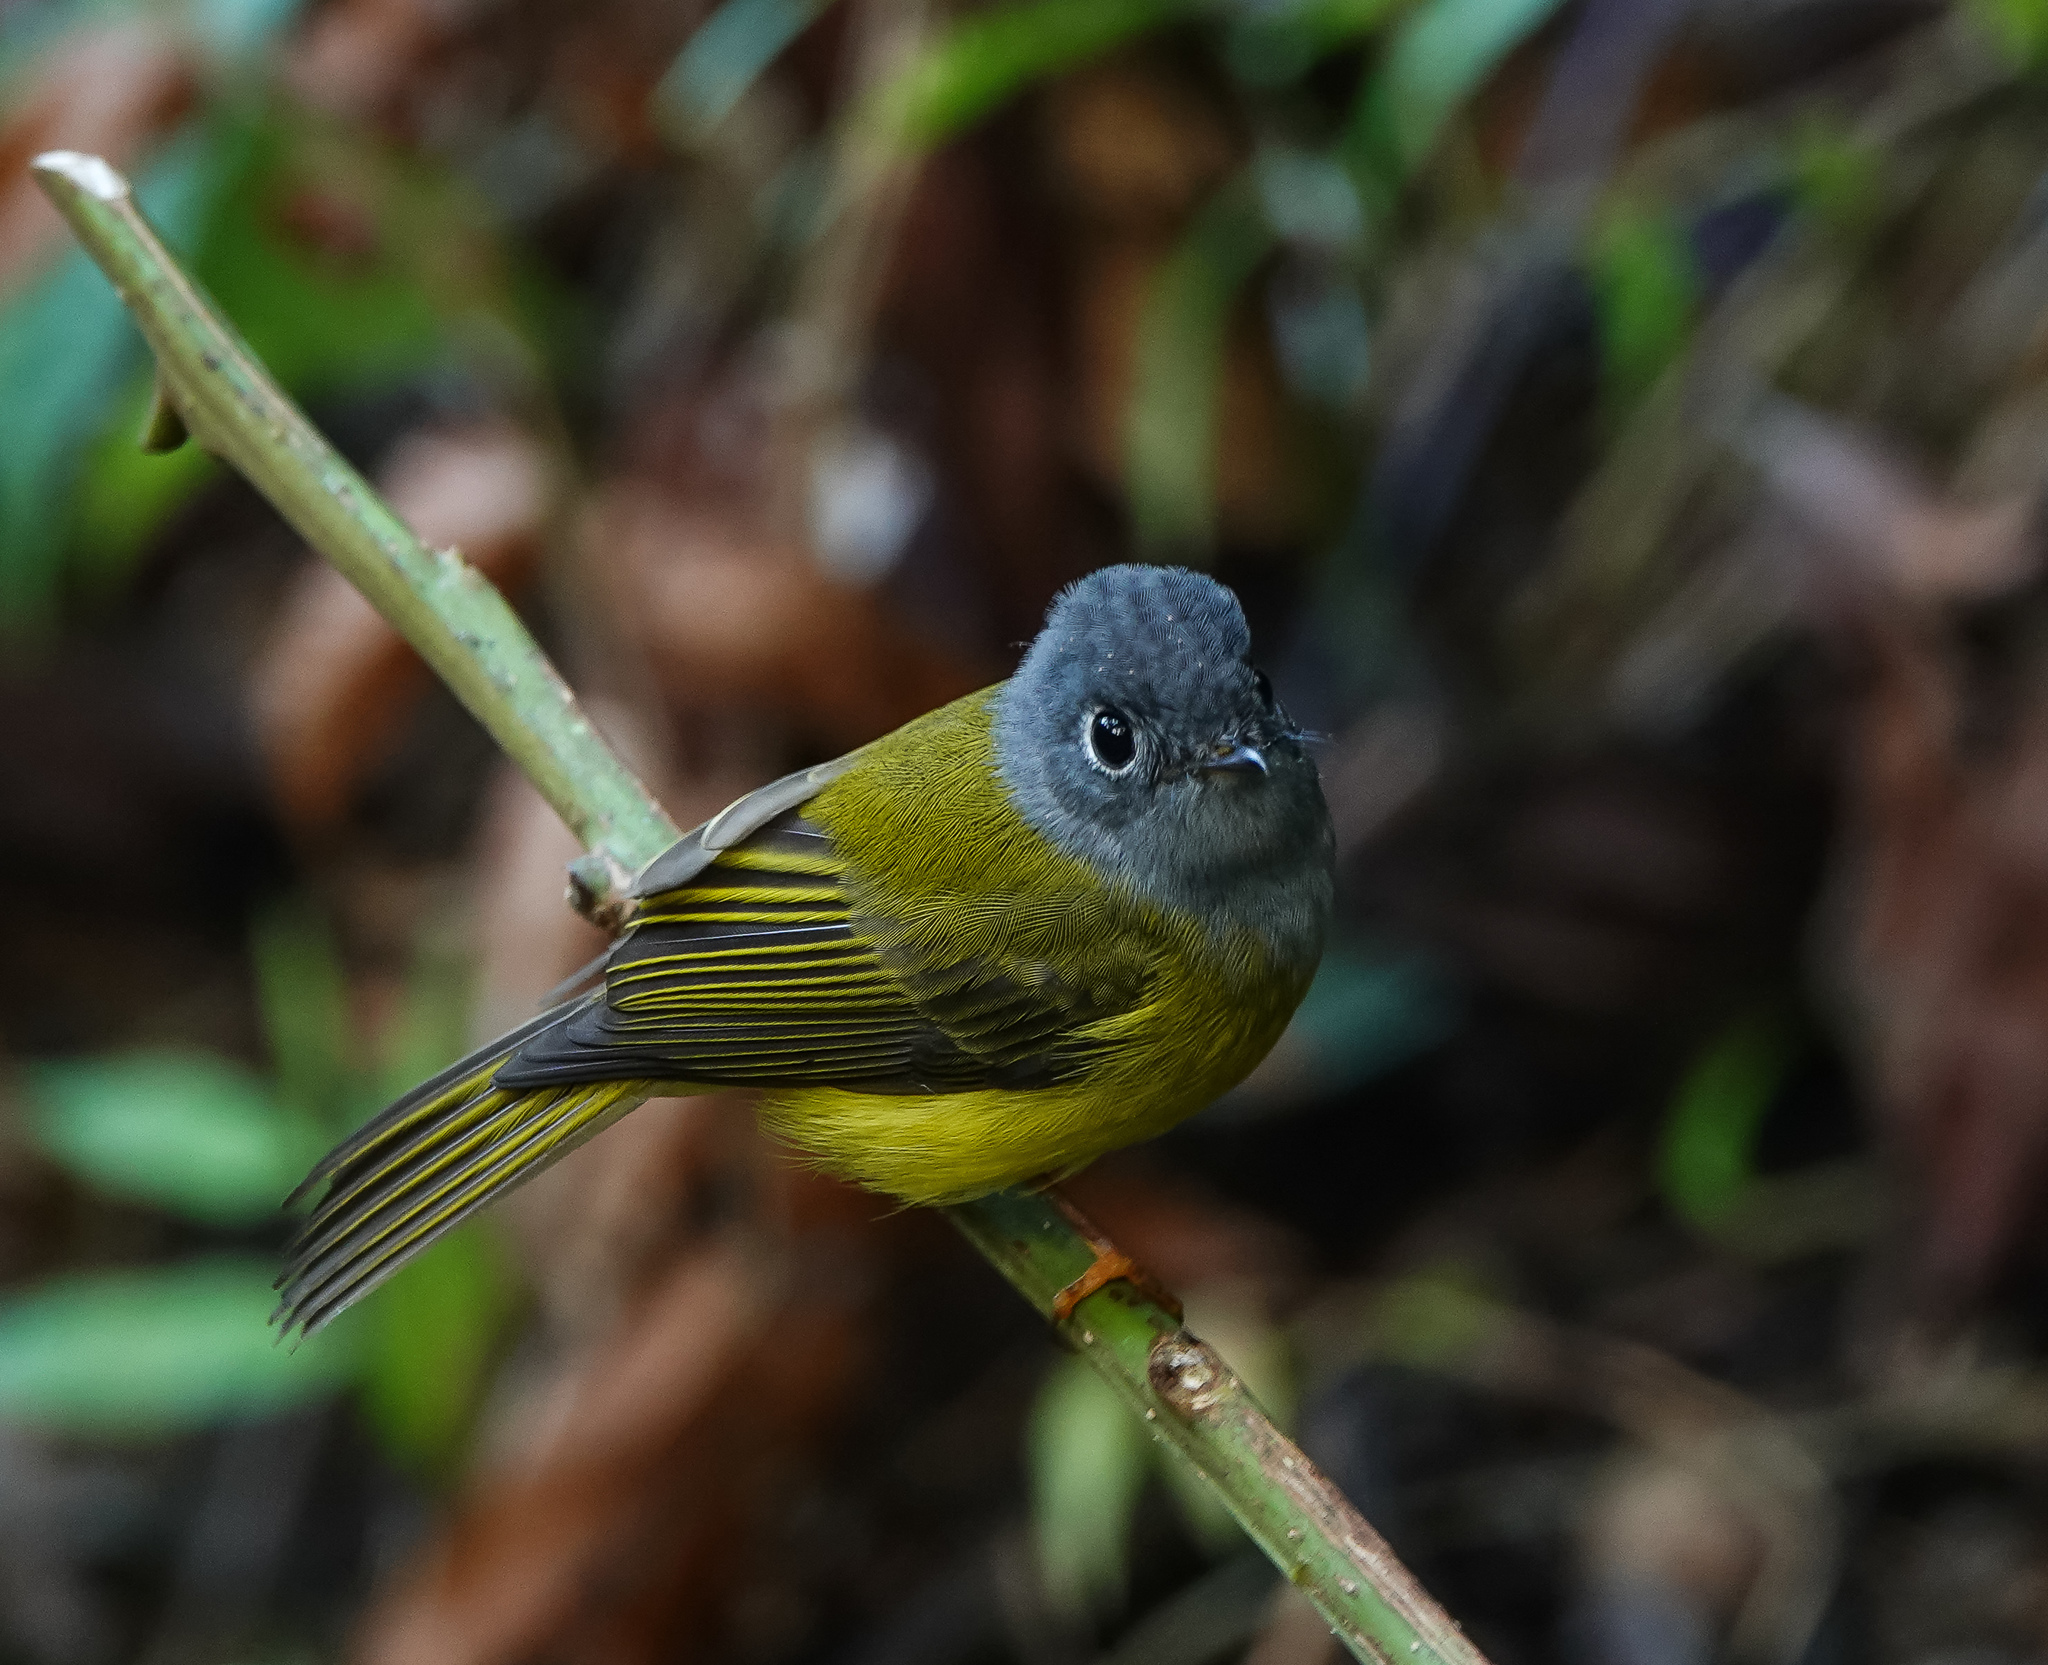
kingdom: Animalia
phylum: Chordata
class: Aves
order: Passeriformes
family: Stenostiridae
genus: Culicicapa
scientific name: Culicicapa ceylonensis
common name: Grey-headed canary-flycatcher
